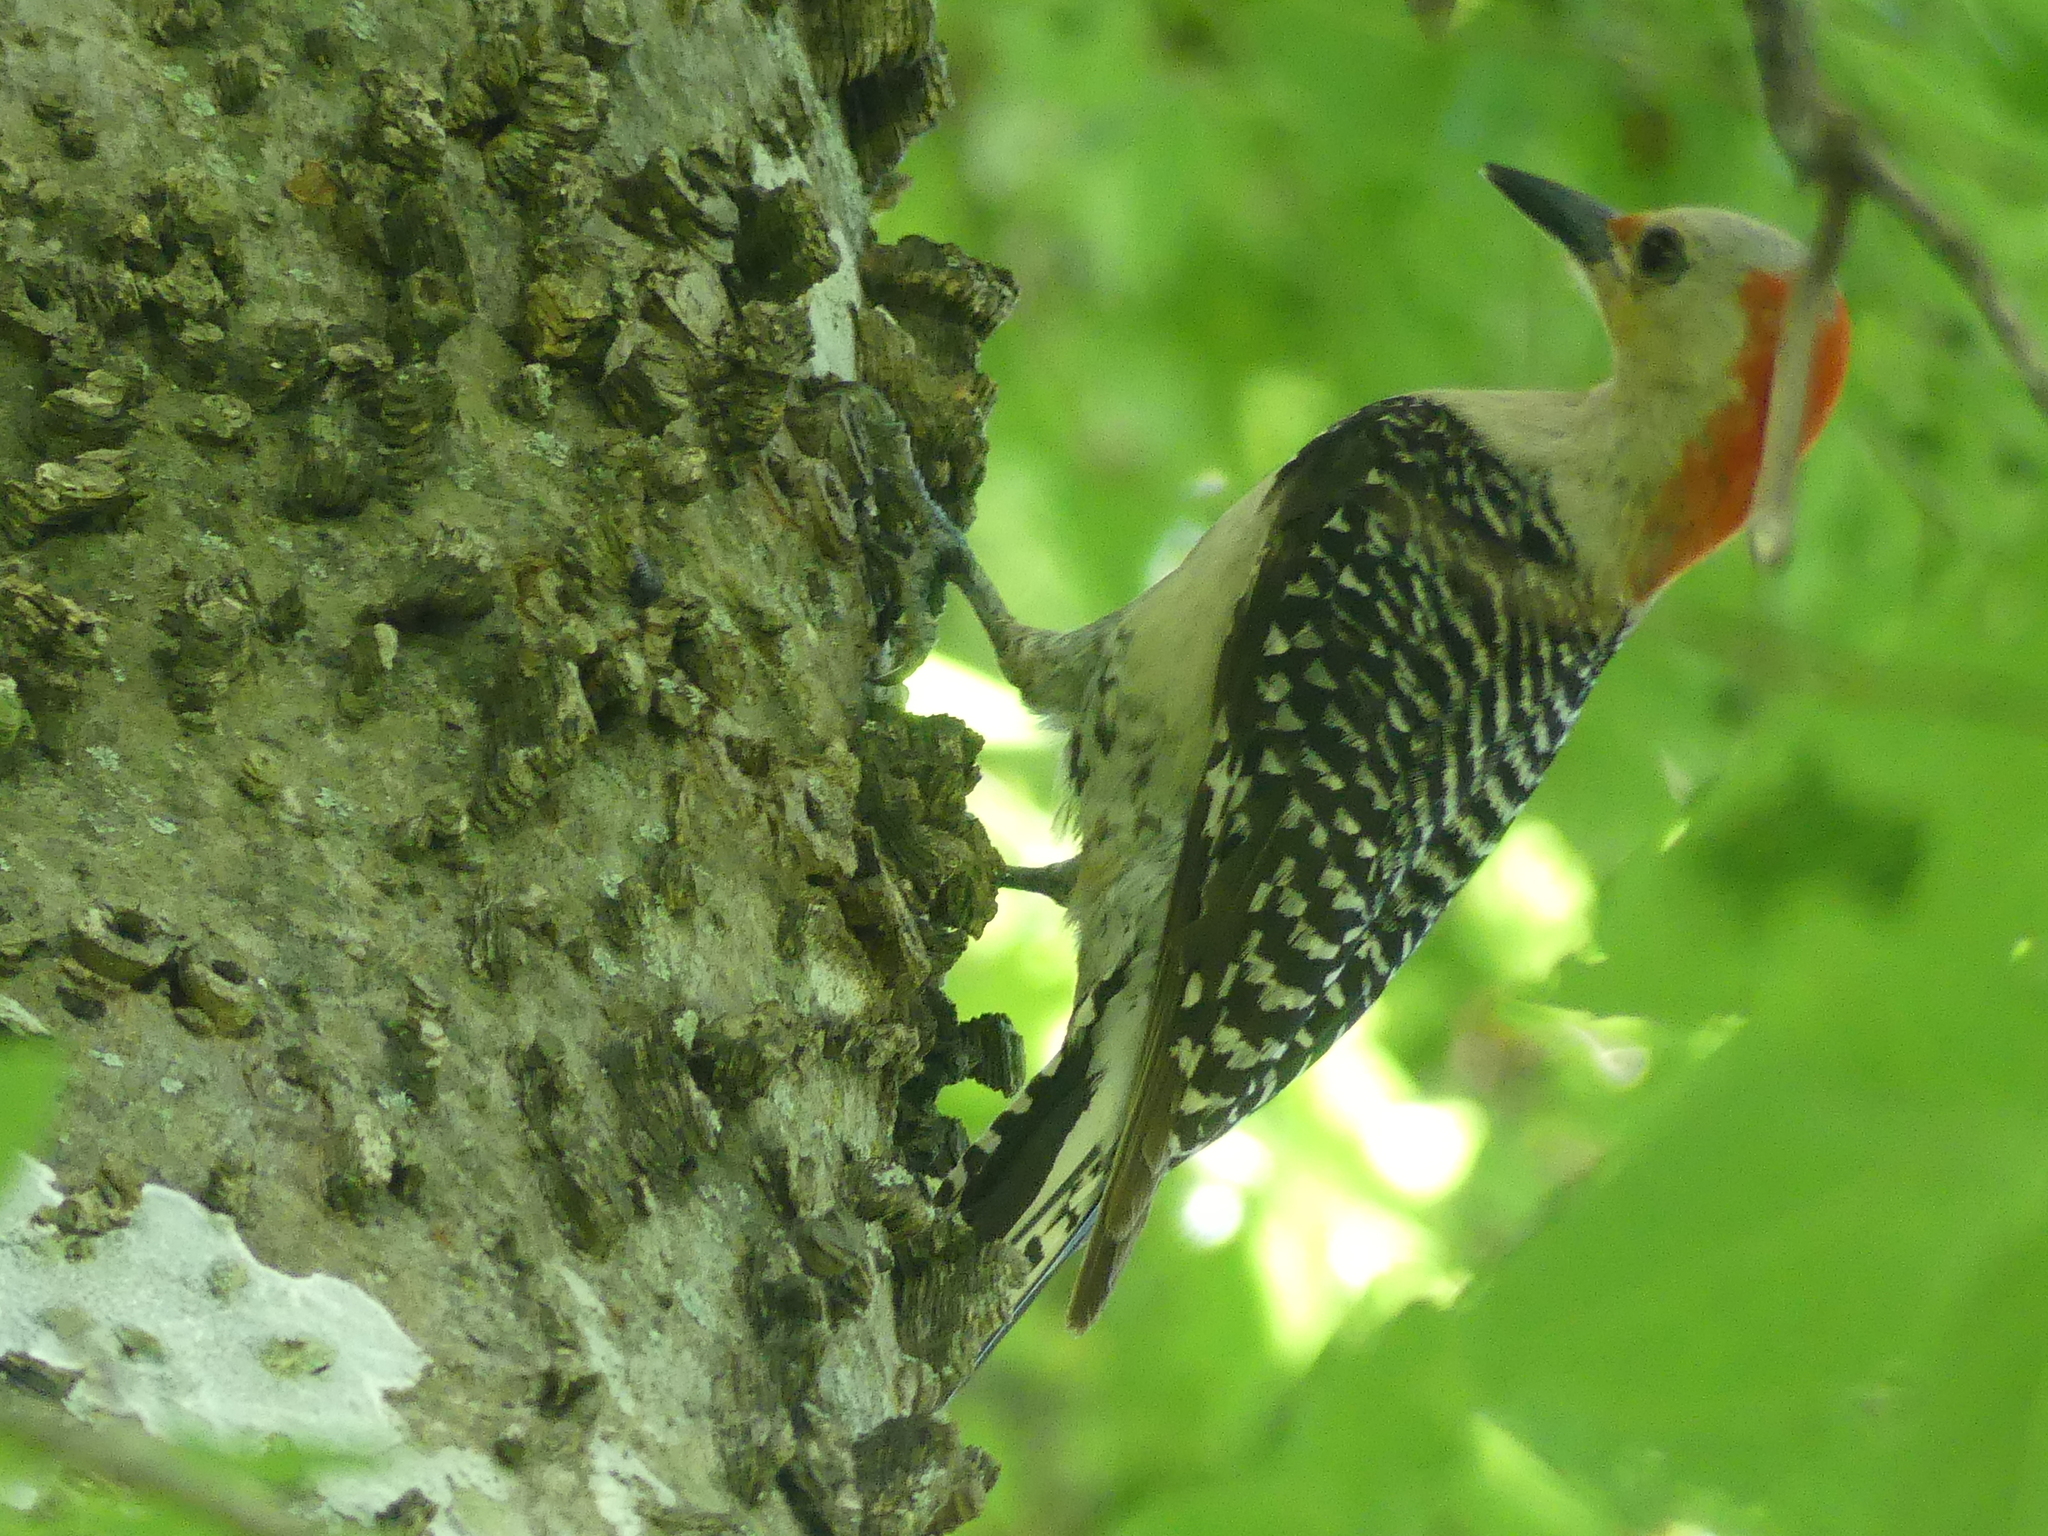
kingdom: Animalia
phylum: Chordata
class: Aves
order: Piciformes
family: Picidae
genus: Melanerpes
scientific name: Melanerpes carolinus
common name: Red-bellied woodpecker
